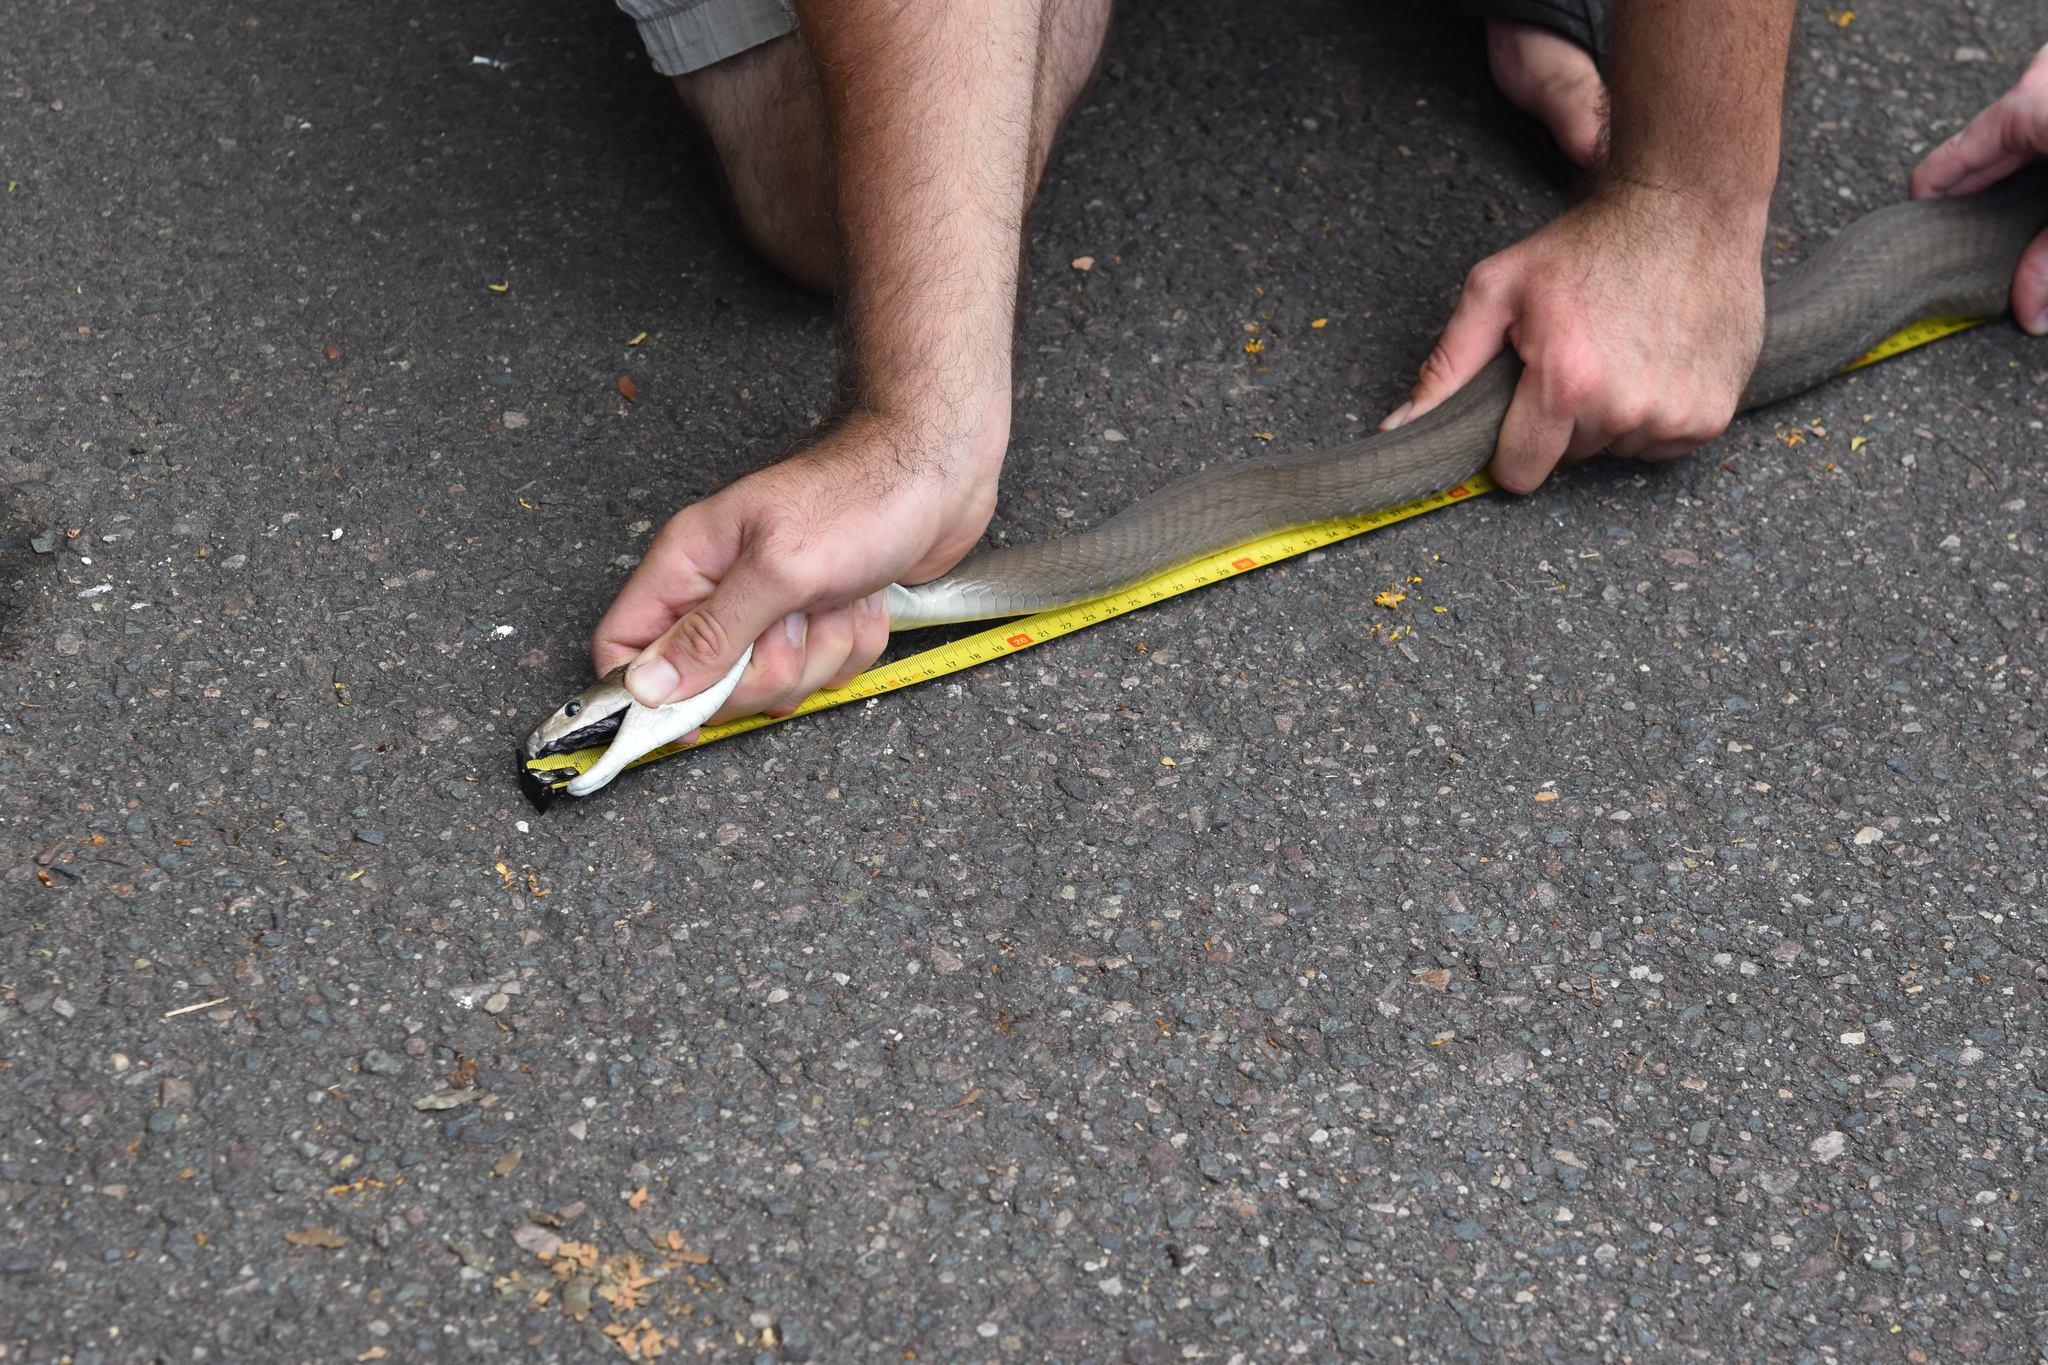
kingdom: Animalia
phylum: Chordata
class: Squamata
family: Elapidae
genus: Dendroaspis
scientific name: Dendroaspis polylepis
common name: Black mamba
